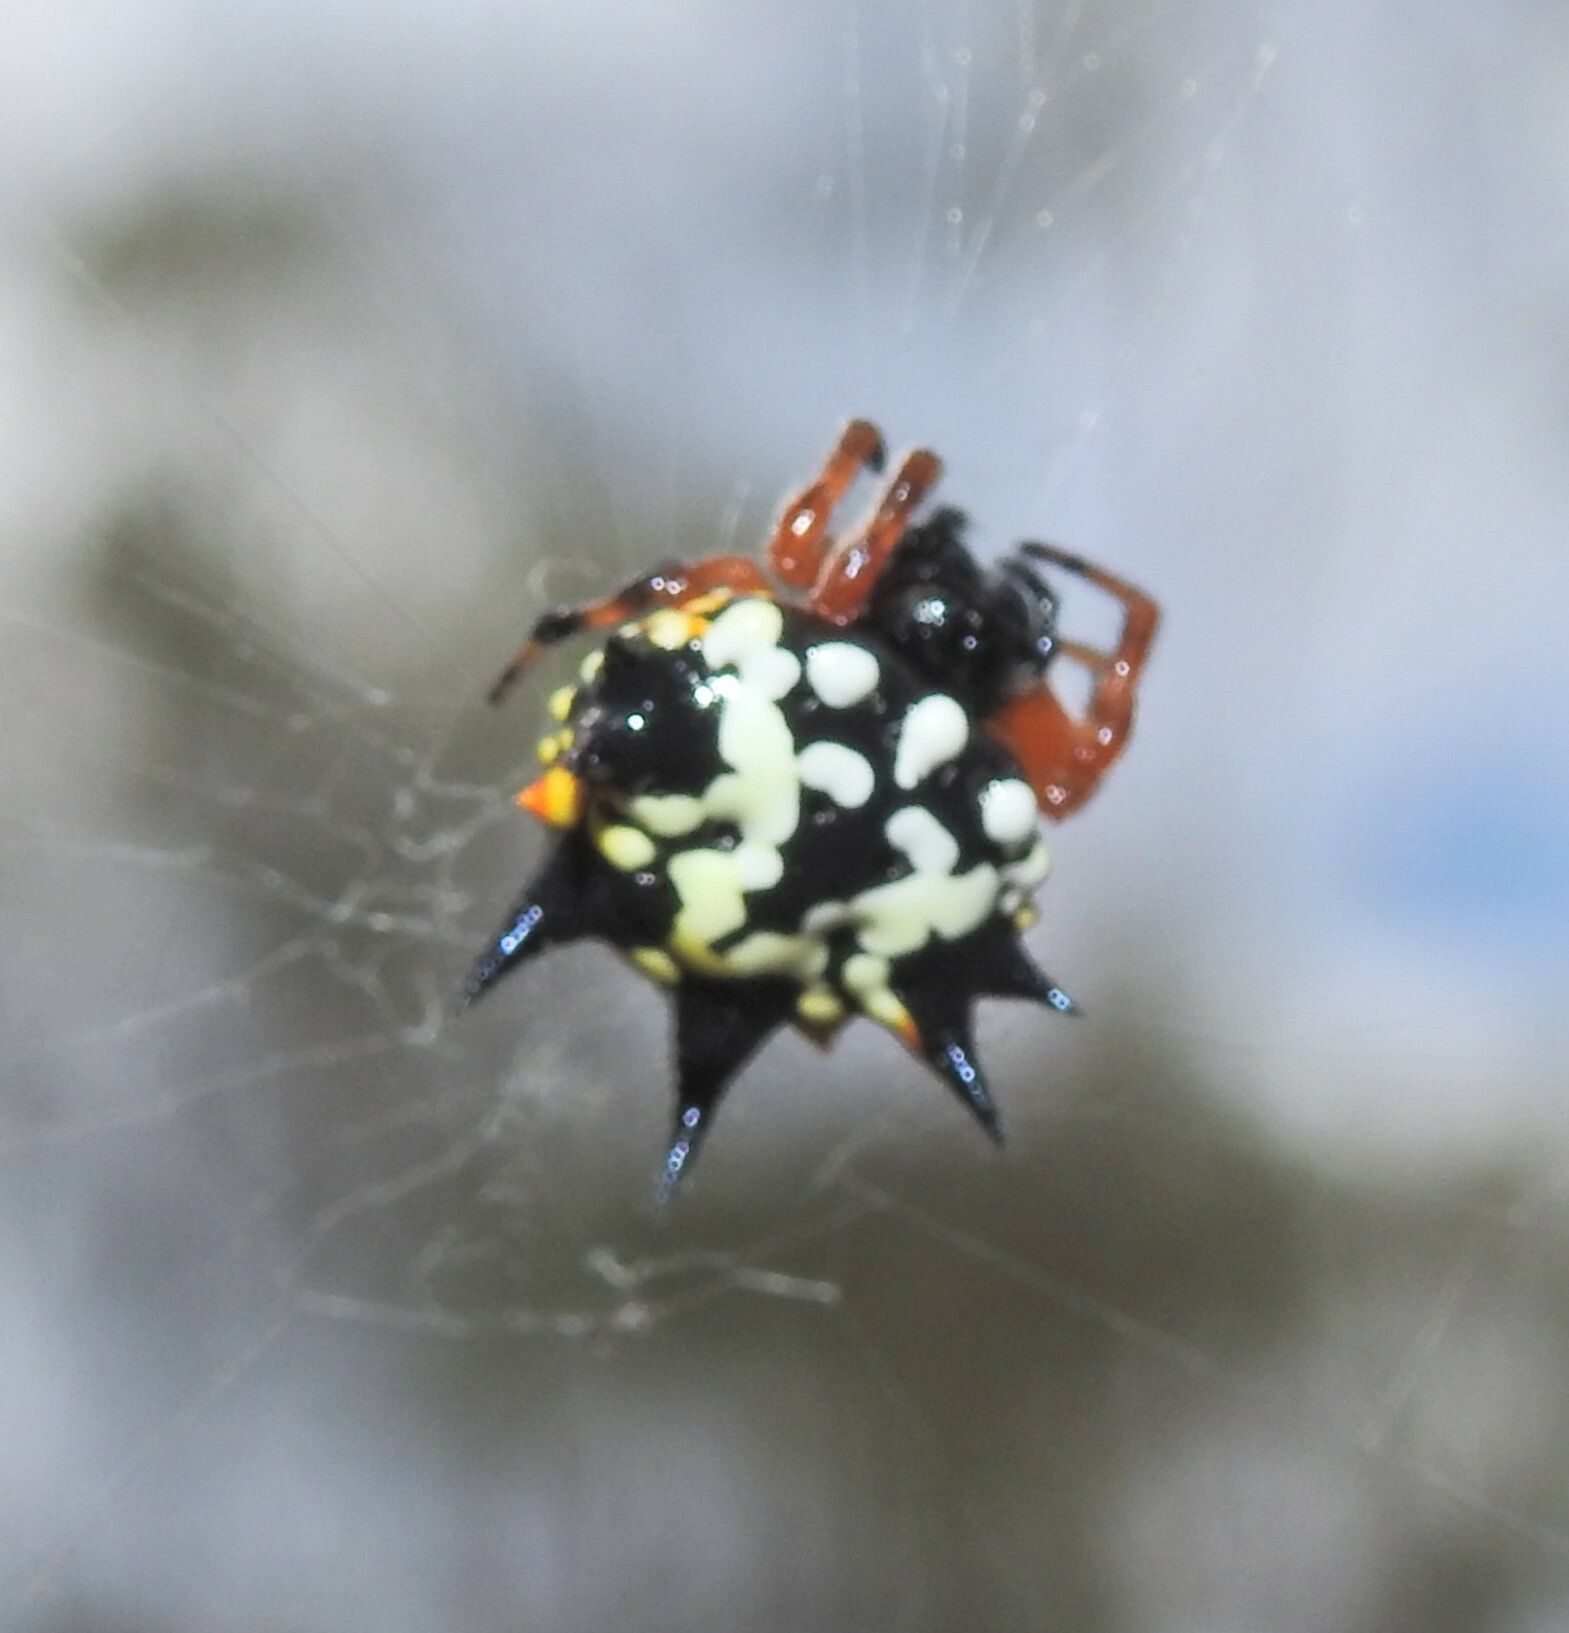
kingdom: Animalia
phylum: Arthropoda
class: Arachnida
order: Araneae
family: Araneidae
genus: Austracantha
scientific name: Austracantha minax
